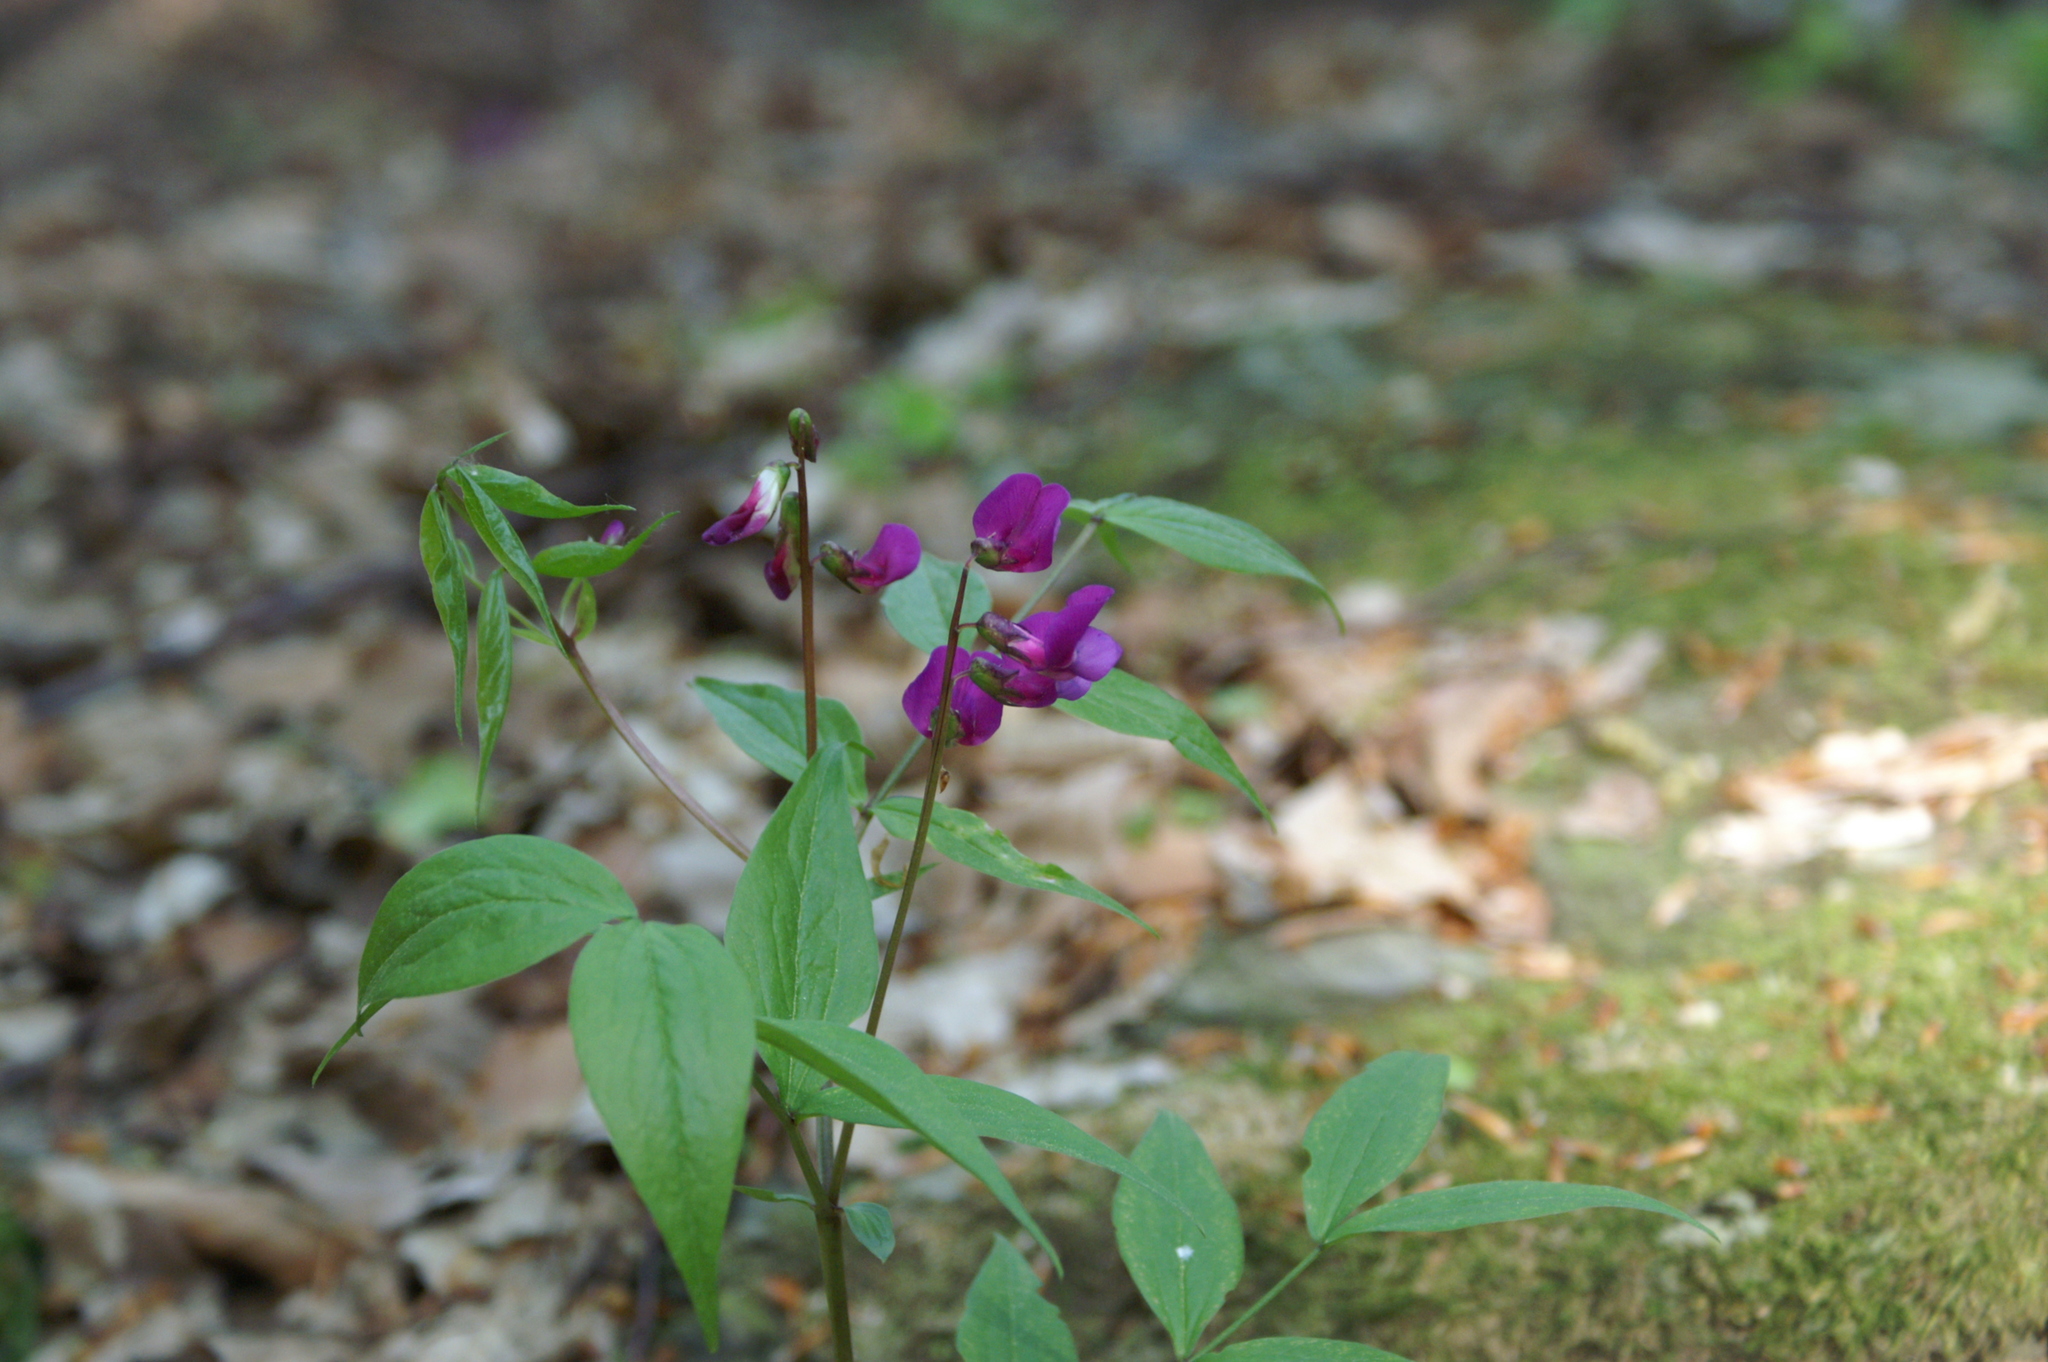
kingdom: Plantae
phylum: Tracheophyta
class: Magnoliopsida
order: Fabales
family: Fabaceae
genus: Lathyrus
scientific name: Lathyrus vernus
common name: Spring pea
